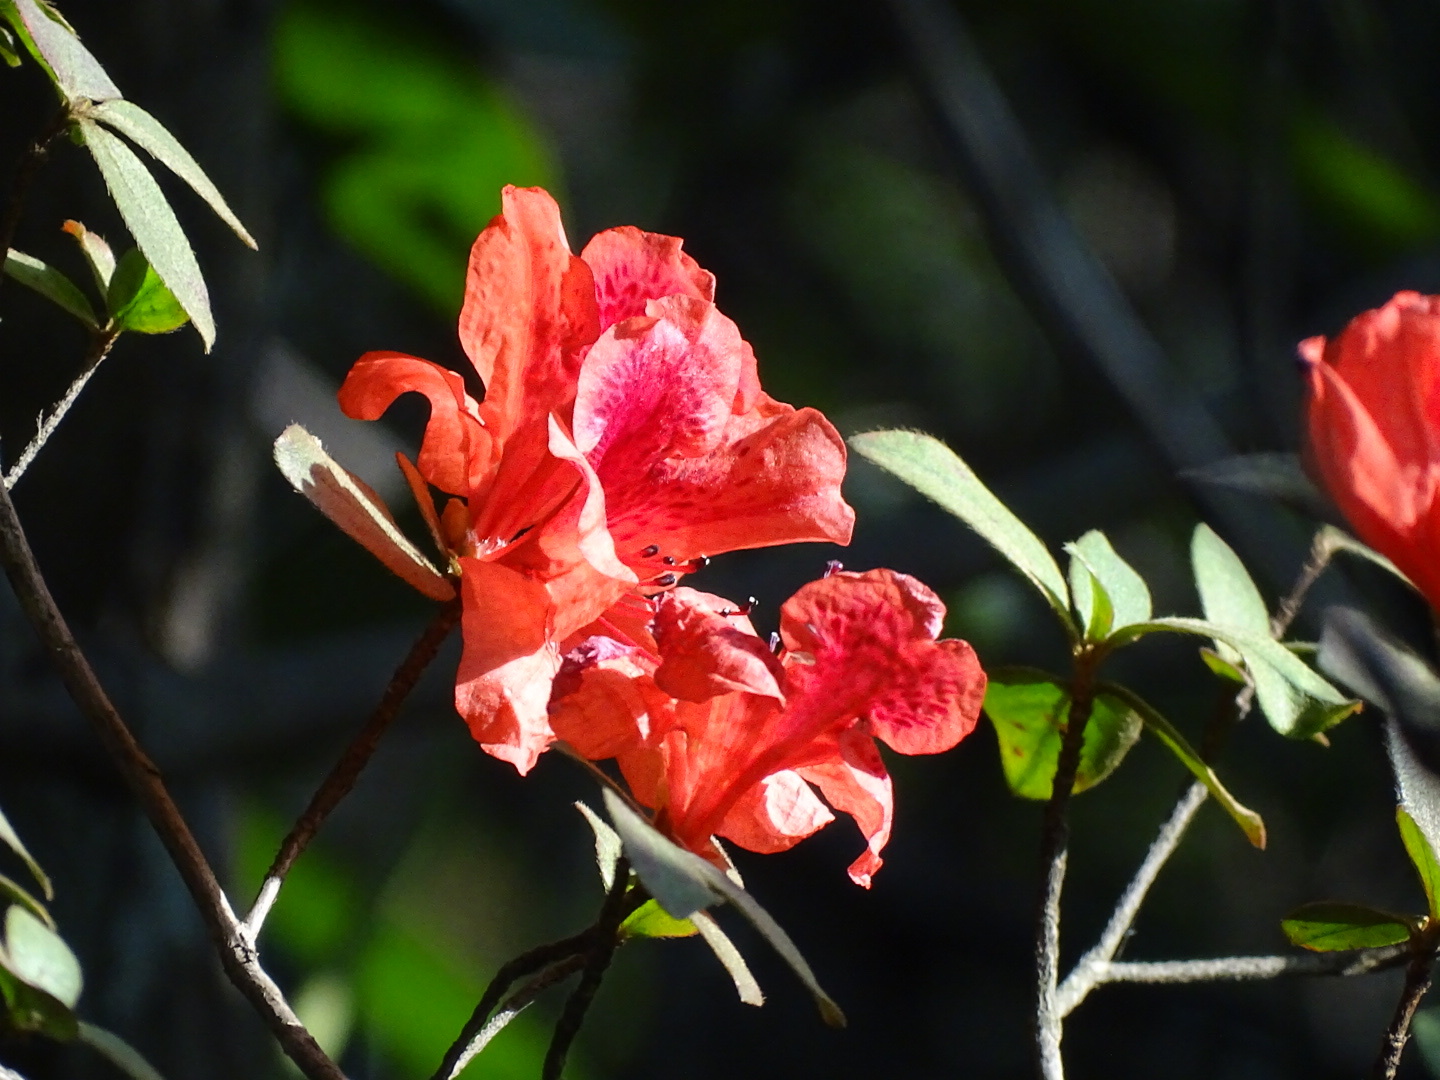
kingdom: Plantae
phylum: Tracheophyta
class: Magnoliopsida
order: Ericales
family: Ericaceae
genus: Rhododendron
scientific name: Rhododendron simsii
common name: Rhododendron
